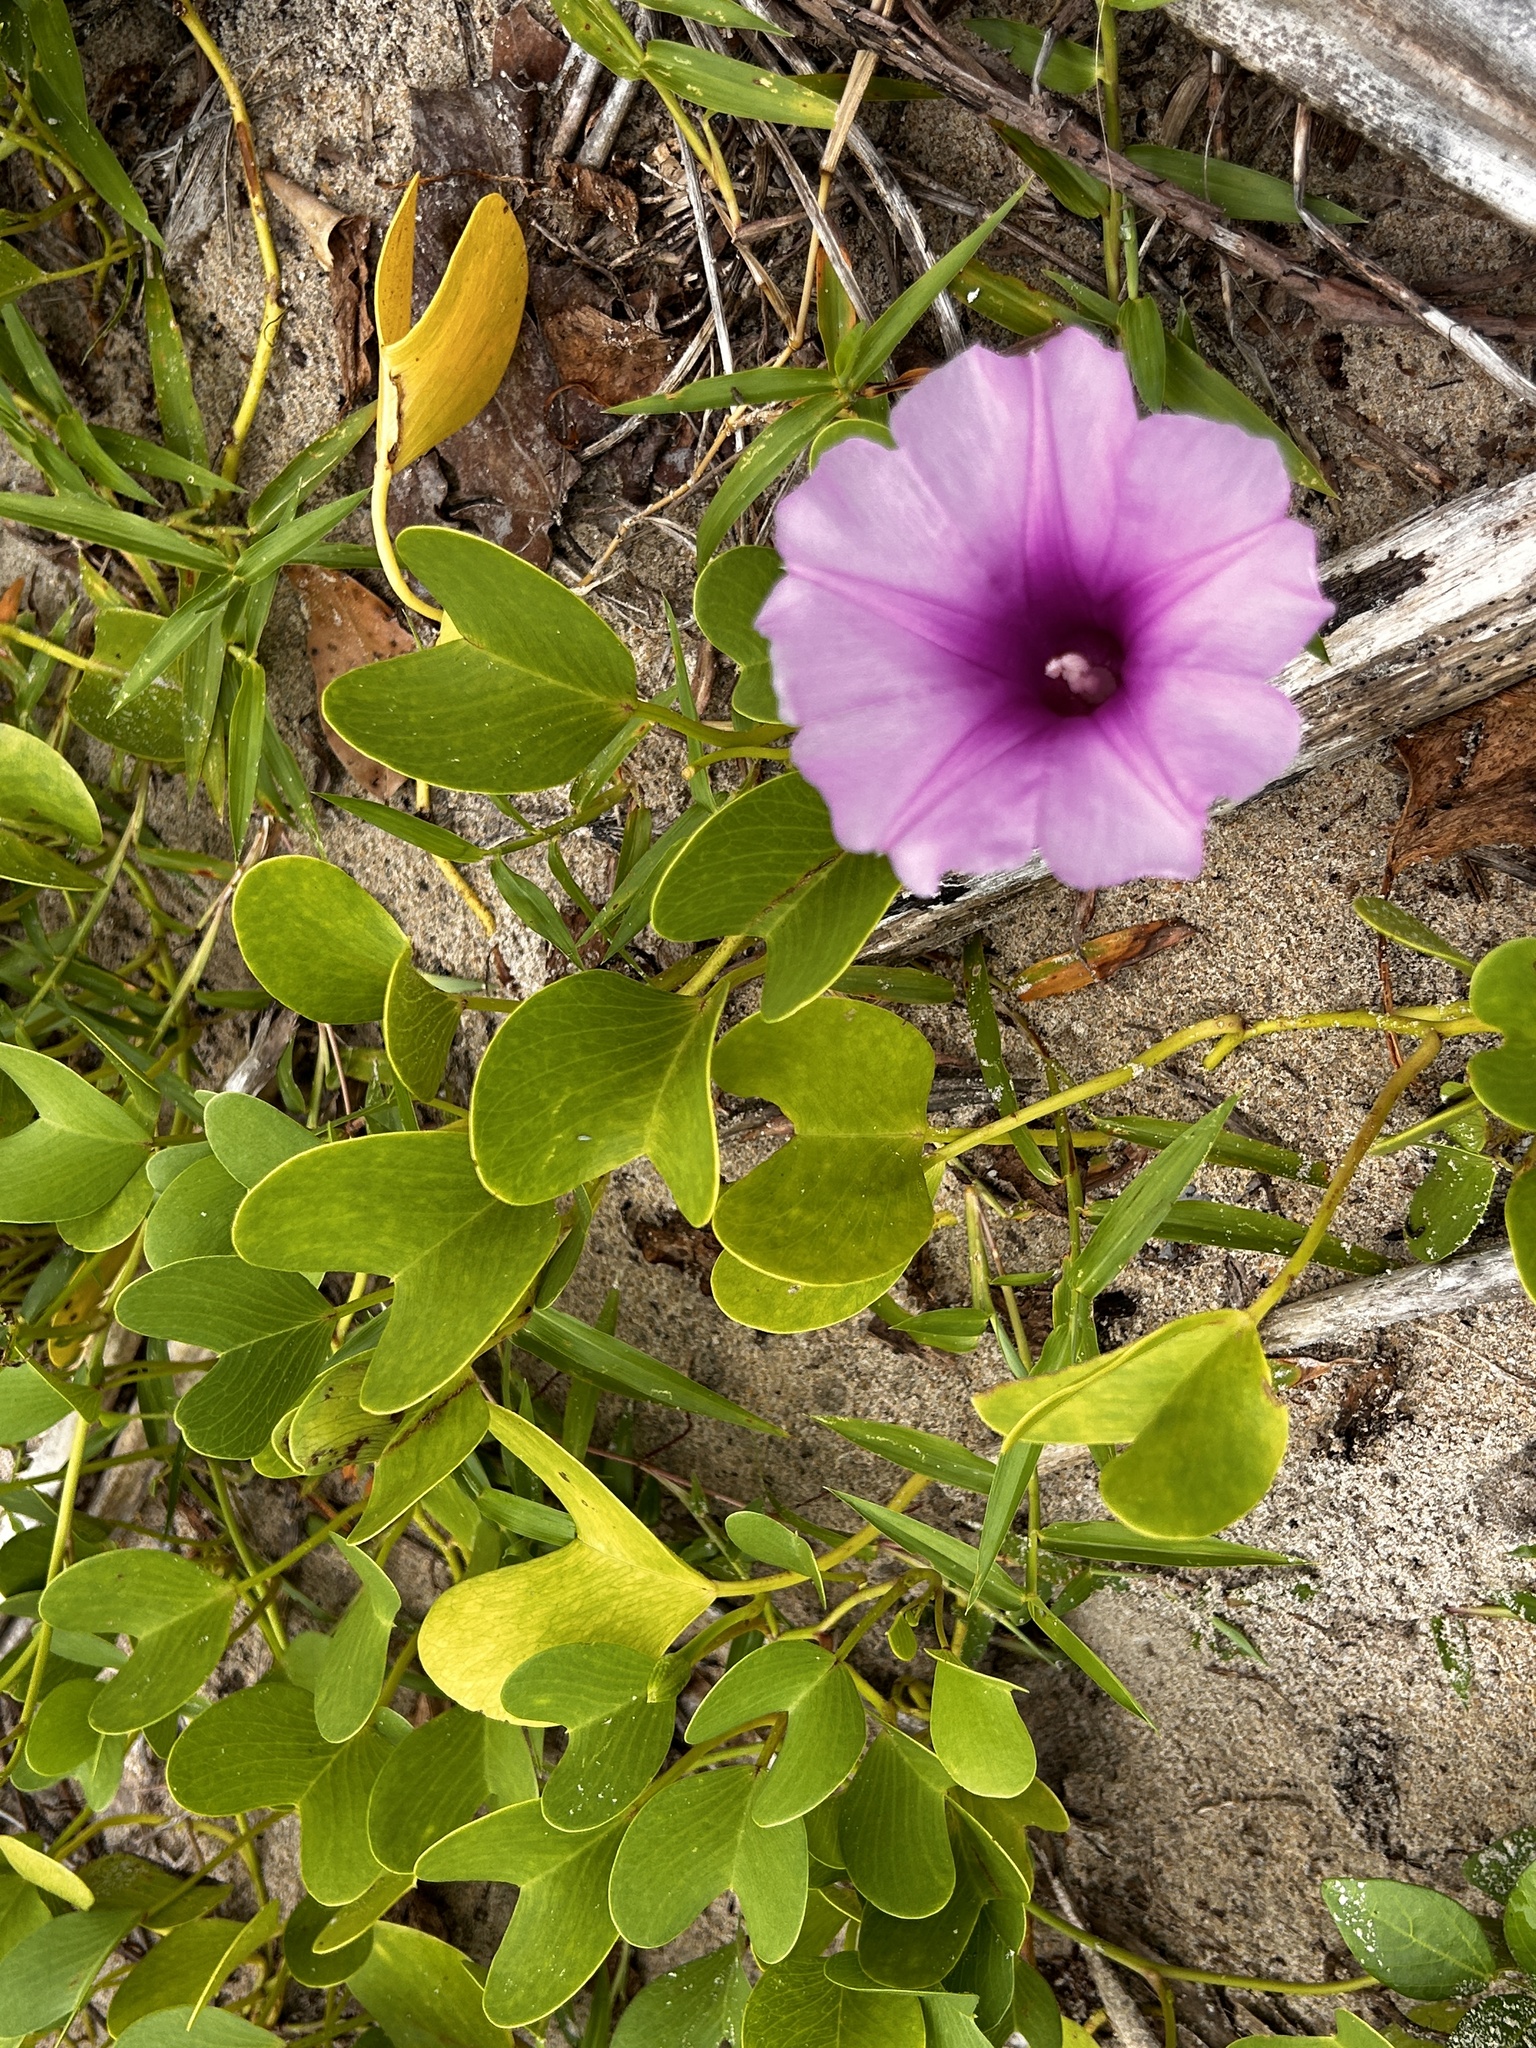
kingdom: Plantae
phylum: Tracheophyta
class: Magnoliopsida
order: Solanales
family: Convolvulaceae
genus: Ipomoea
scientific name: Ipomoea pes-caprae
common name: Beach morning glory
